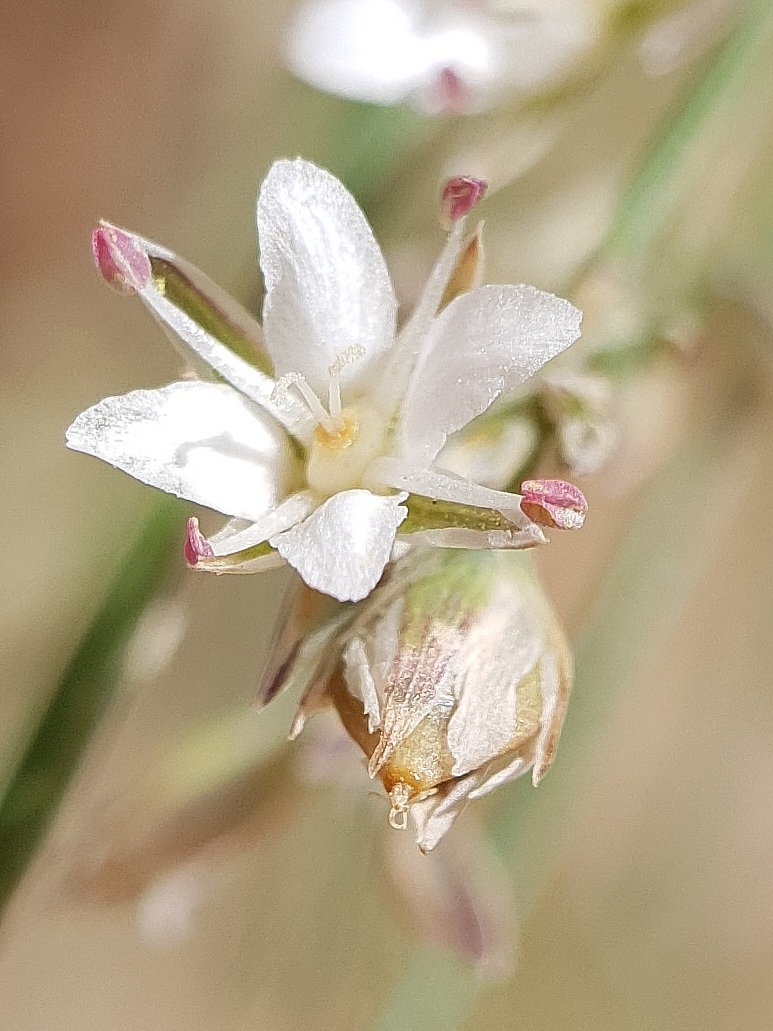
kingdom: Plantae
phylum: Tracheophyta
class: Magnoliopsida
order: Caryophyllales
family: Caryophyllaceae
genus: Bufonia
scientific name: Bufonia chevalieri
